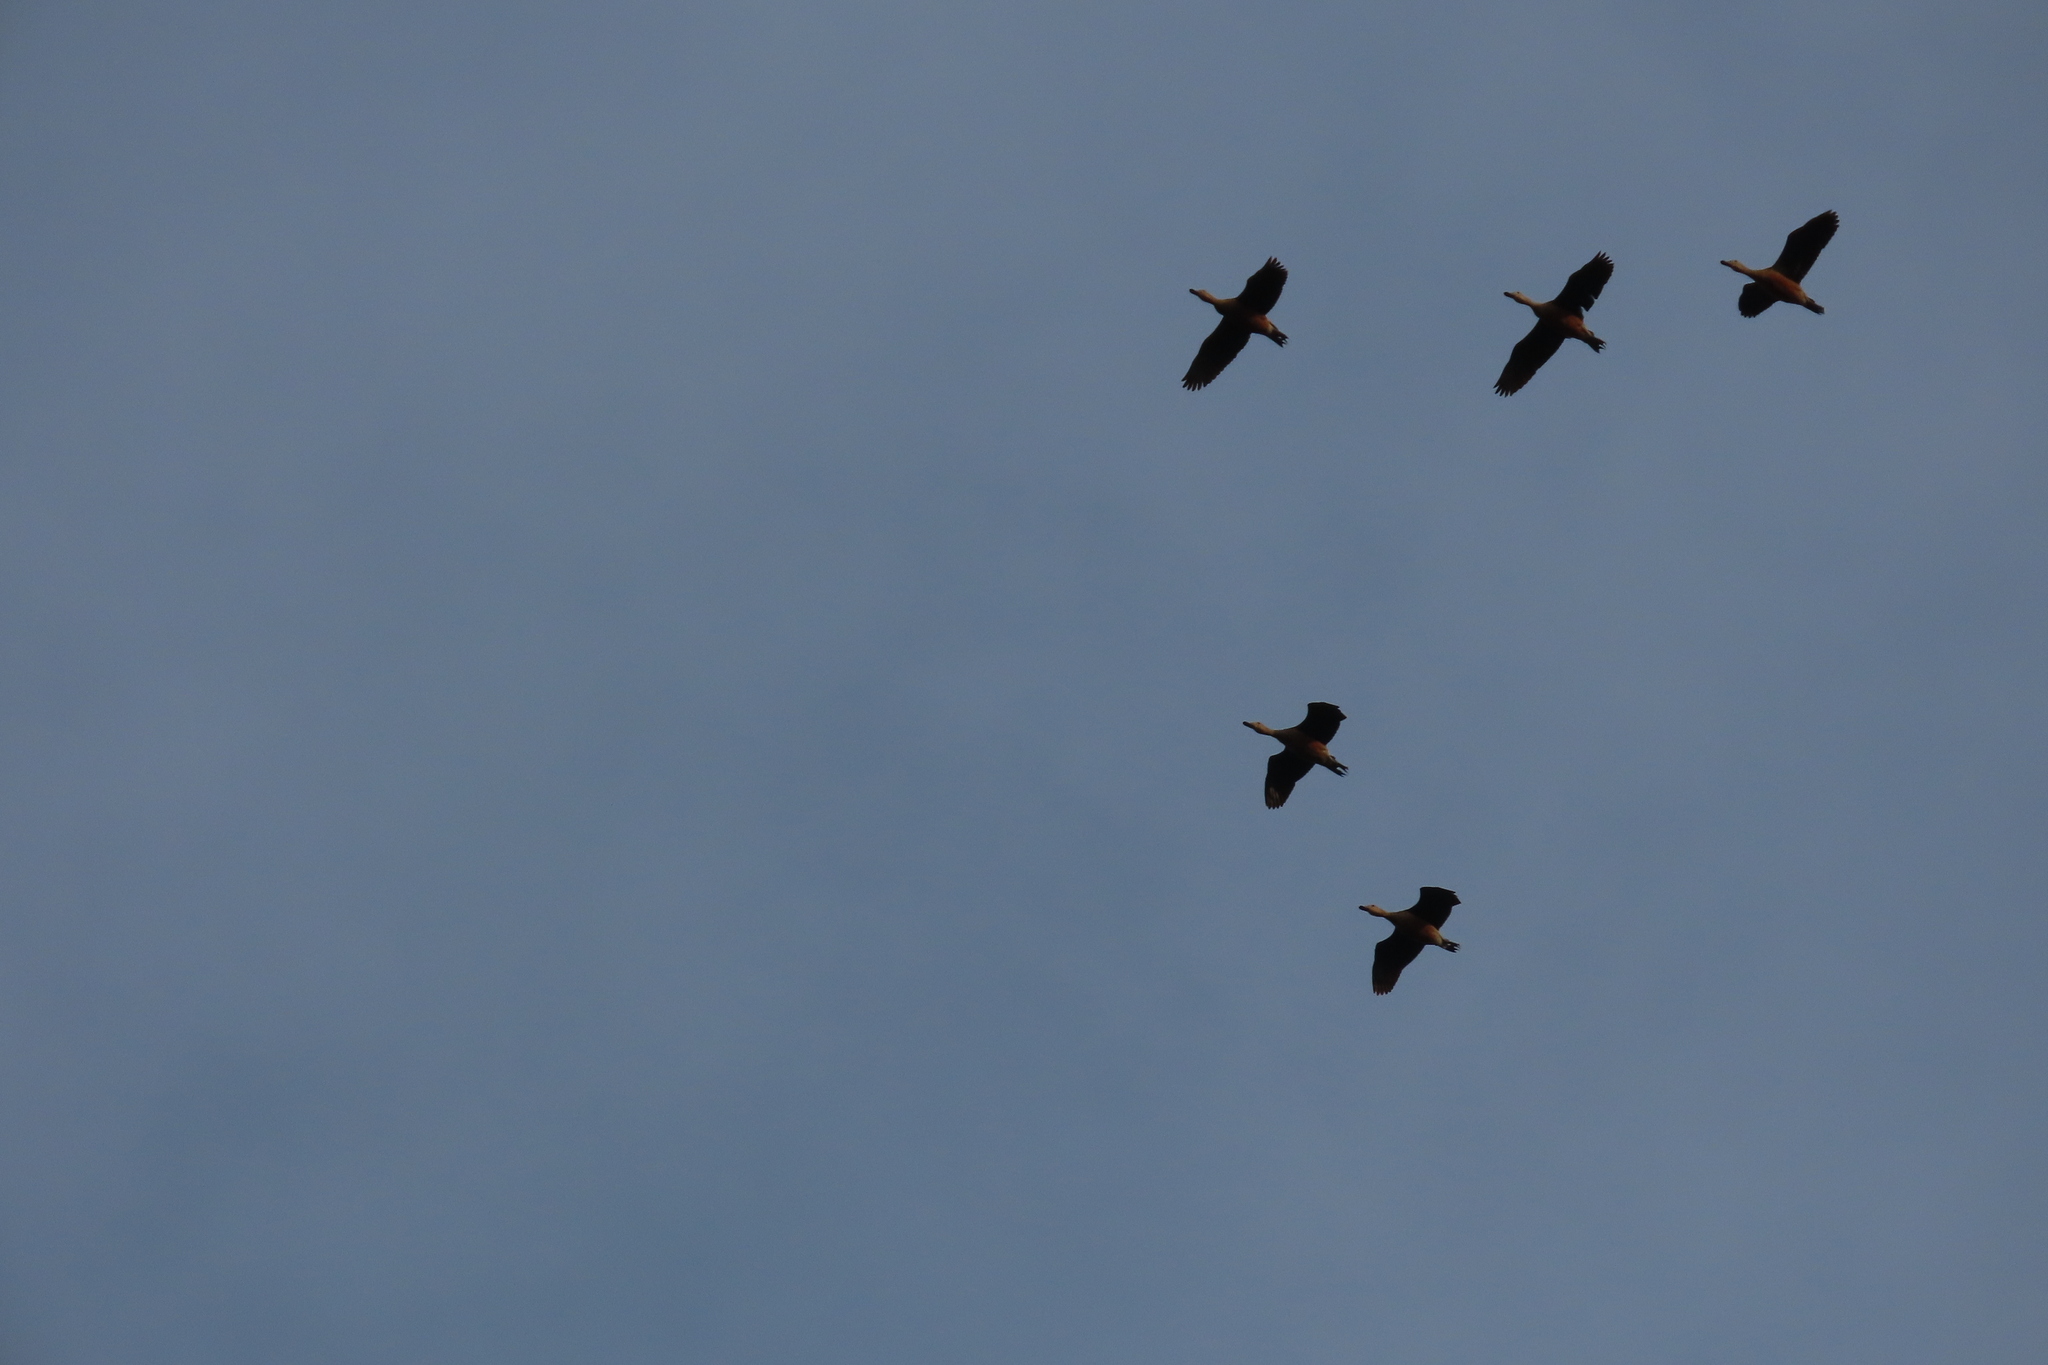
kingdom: Animalia
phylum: Chordata
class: Aves
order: Anseriformes
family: Anatidae
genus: Dendrocygna
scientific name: Dendrocygna javanica
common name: Lesser whistling-duck
